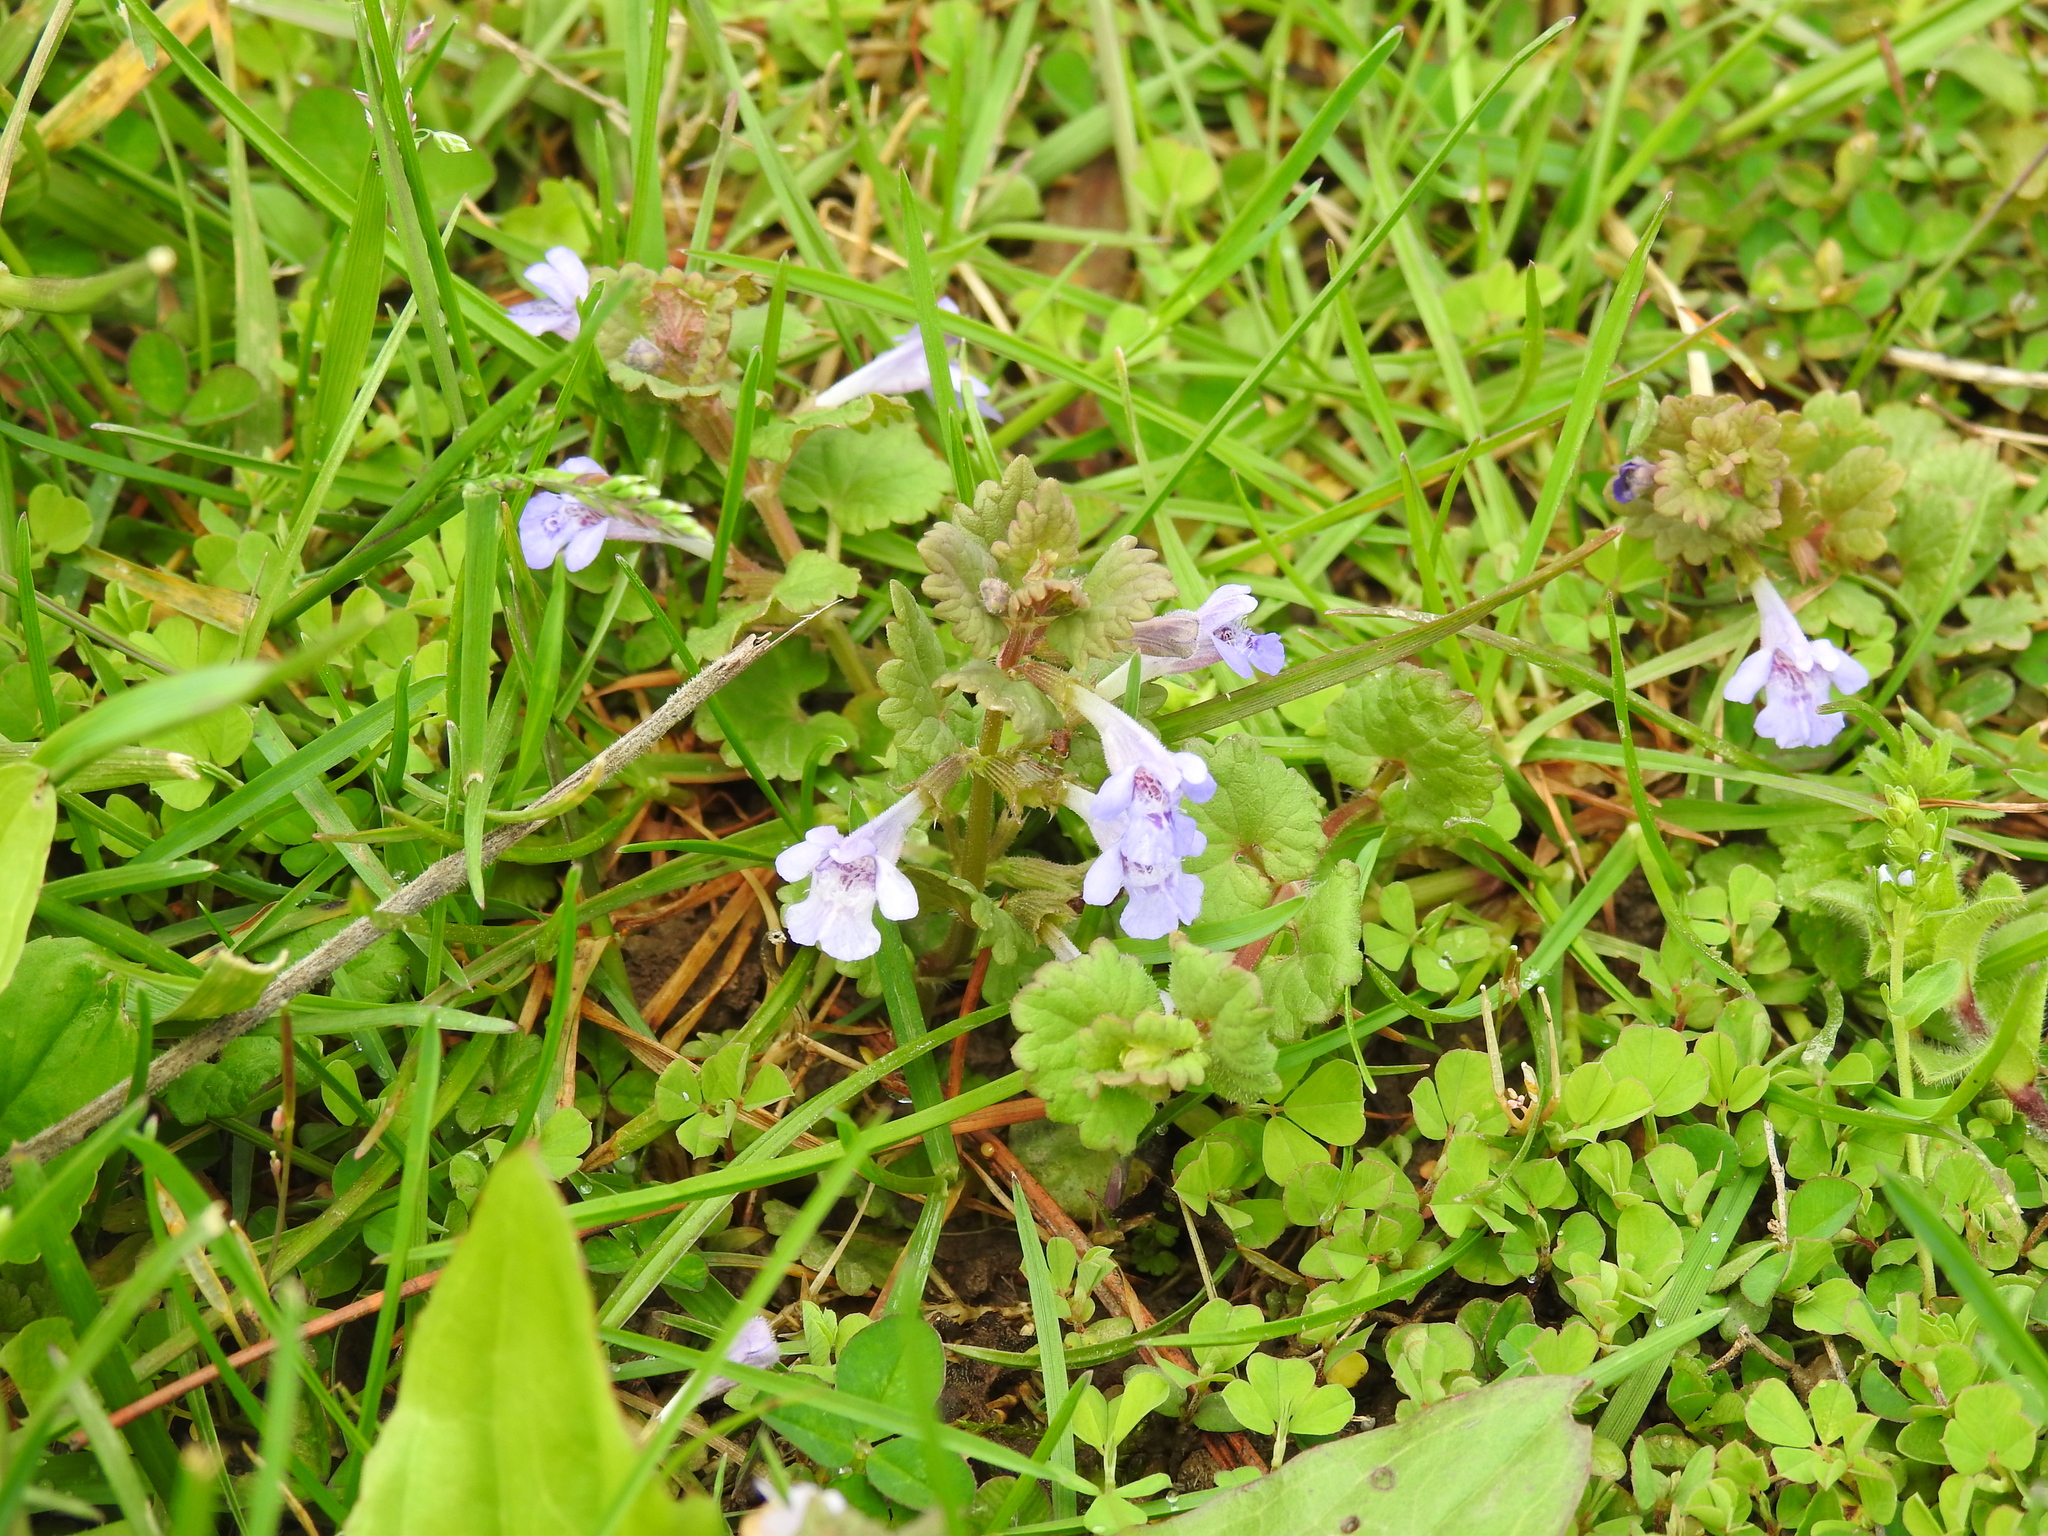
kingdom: Plantae
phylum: Tracheophyta
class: Magnoliopsida
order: Lamiales
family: Lamiaceae
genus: Glechoma
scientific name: Glechoma hederacea
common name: Ground ivy
